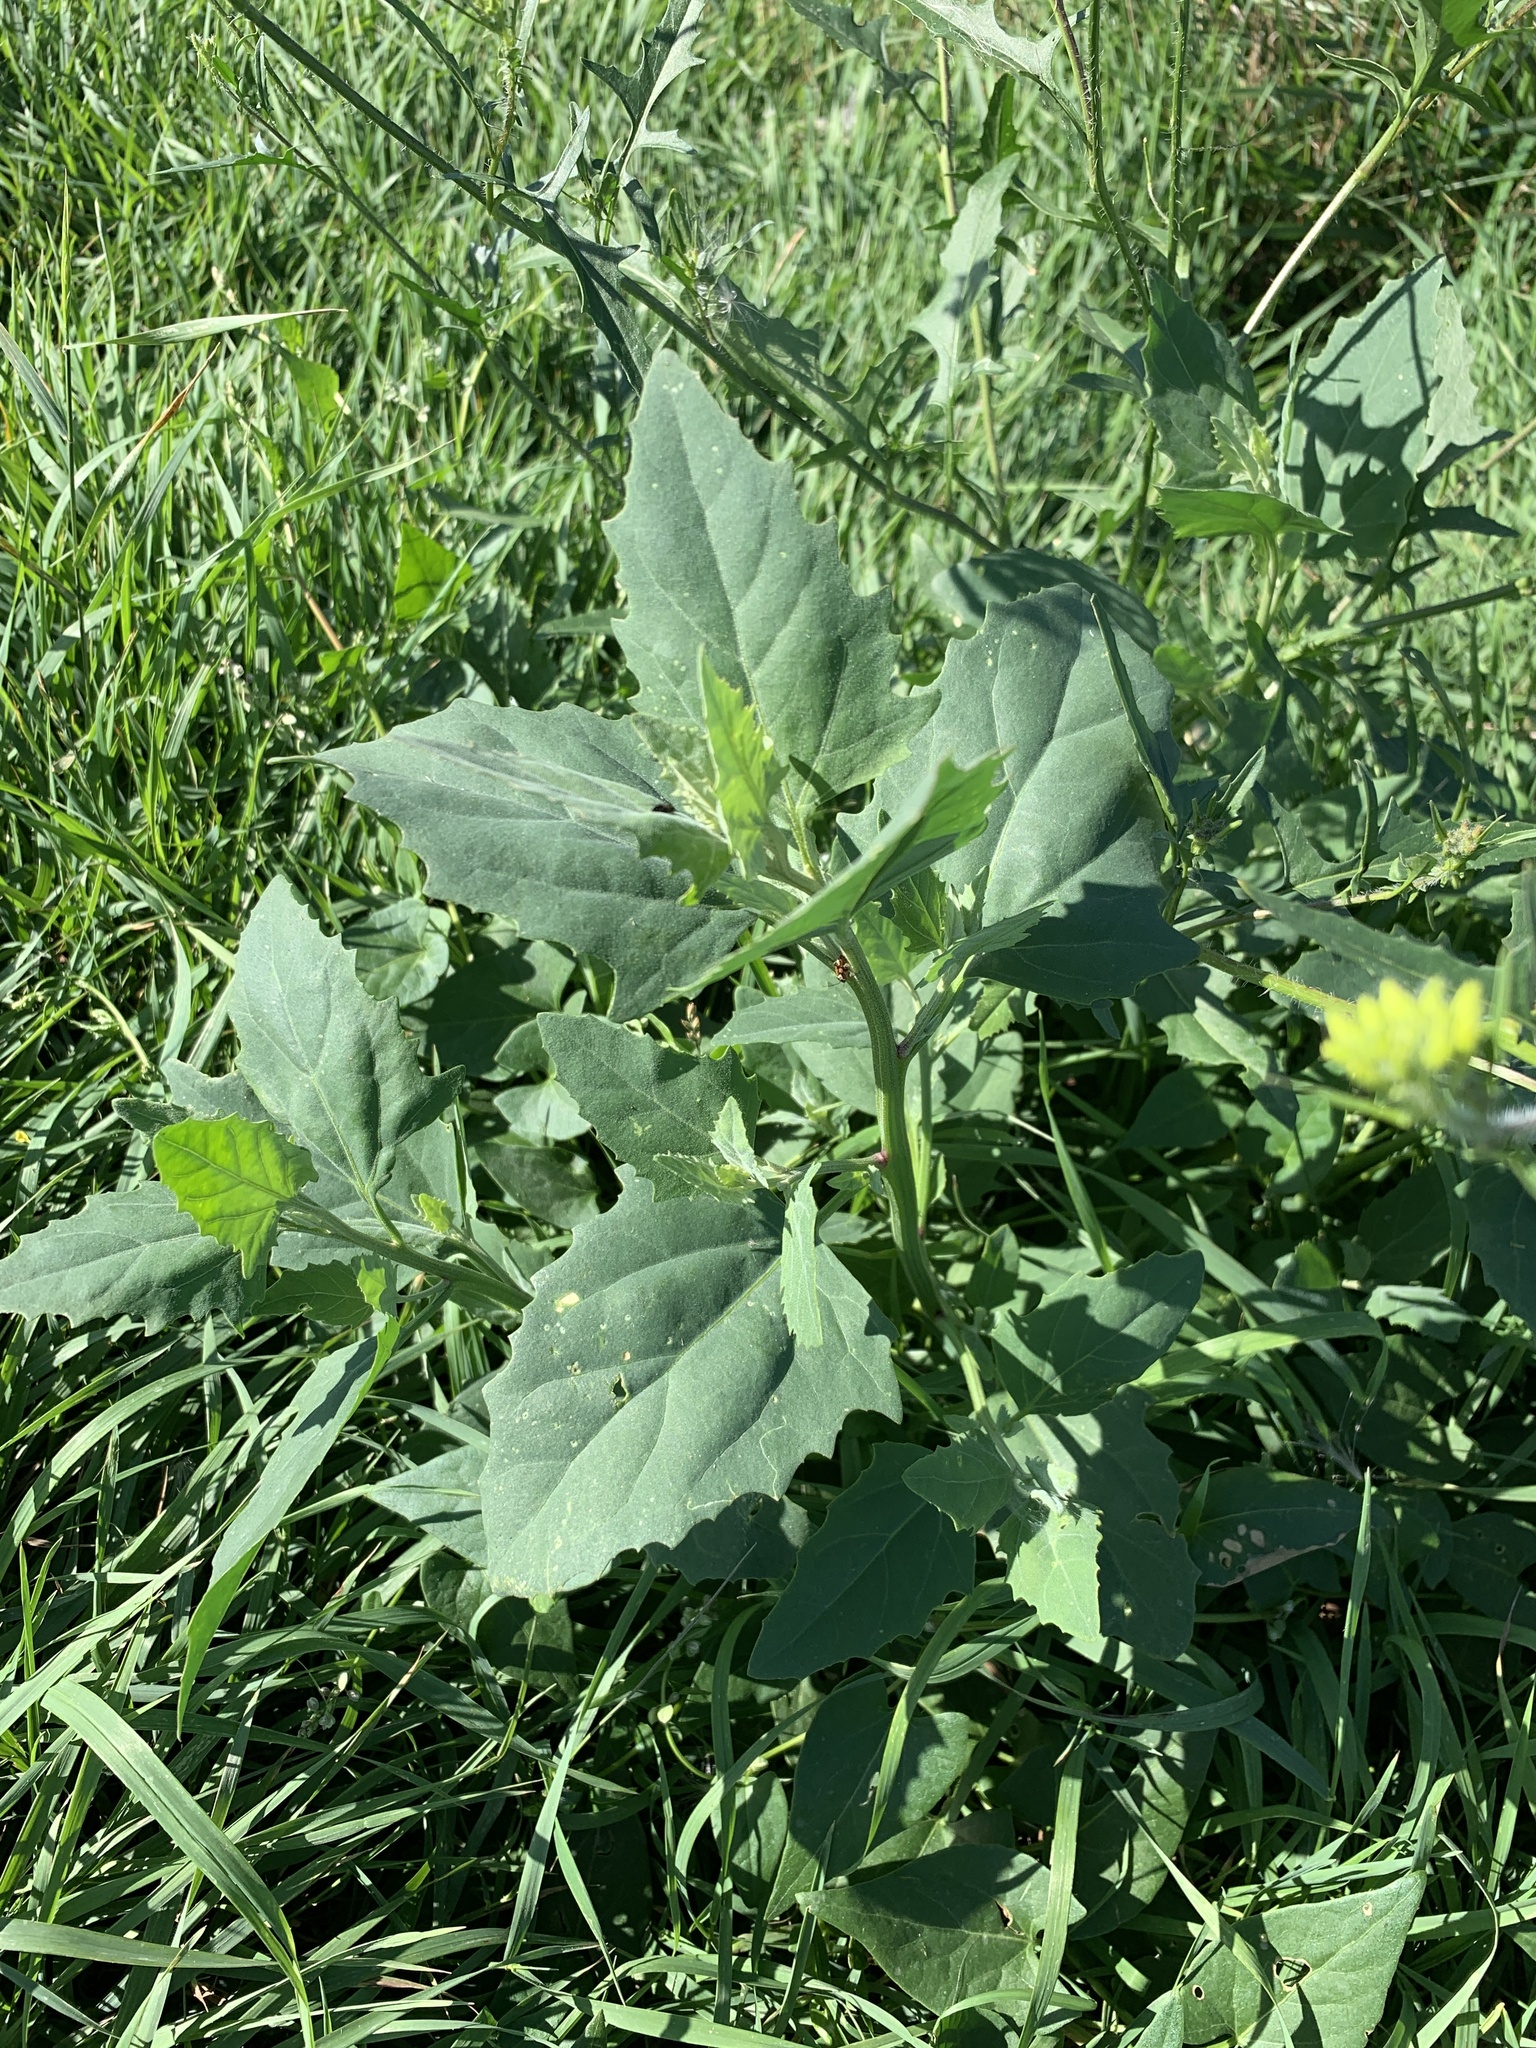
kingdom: Plantae
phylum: Tracheophyta
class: Magnoliopsida
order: Caryophyllales
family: Amaranthaceae
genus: Atriplex
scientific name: Atriplex sagittata
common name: Purple orache
